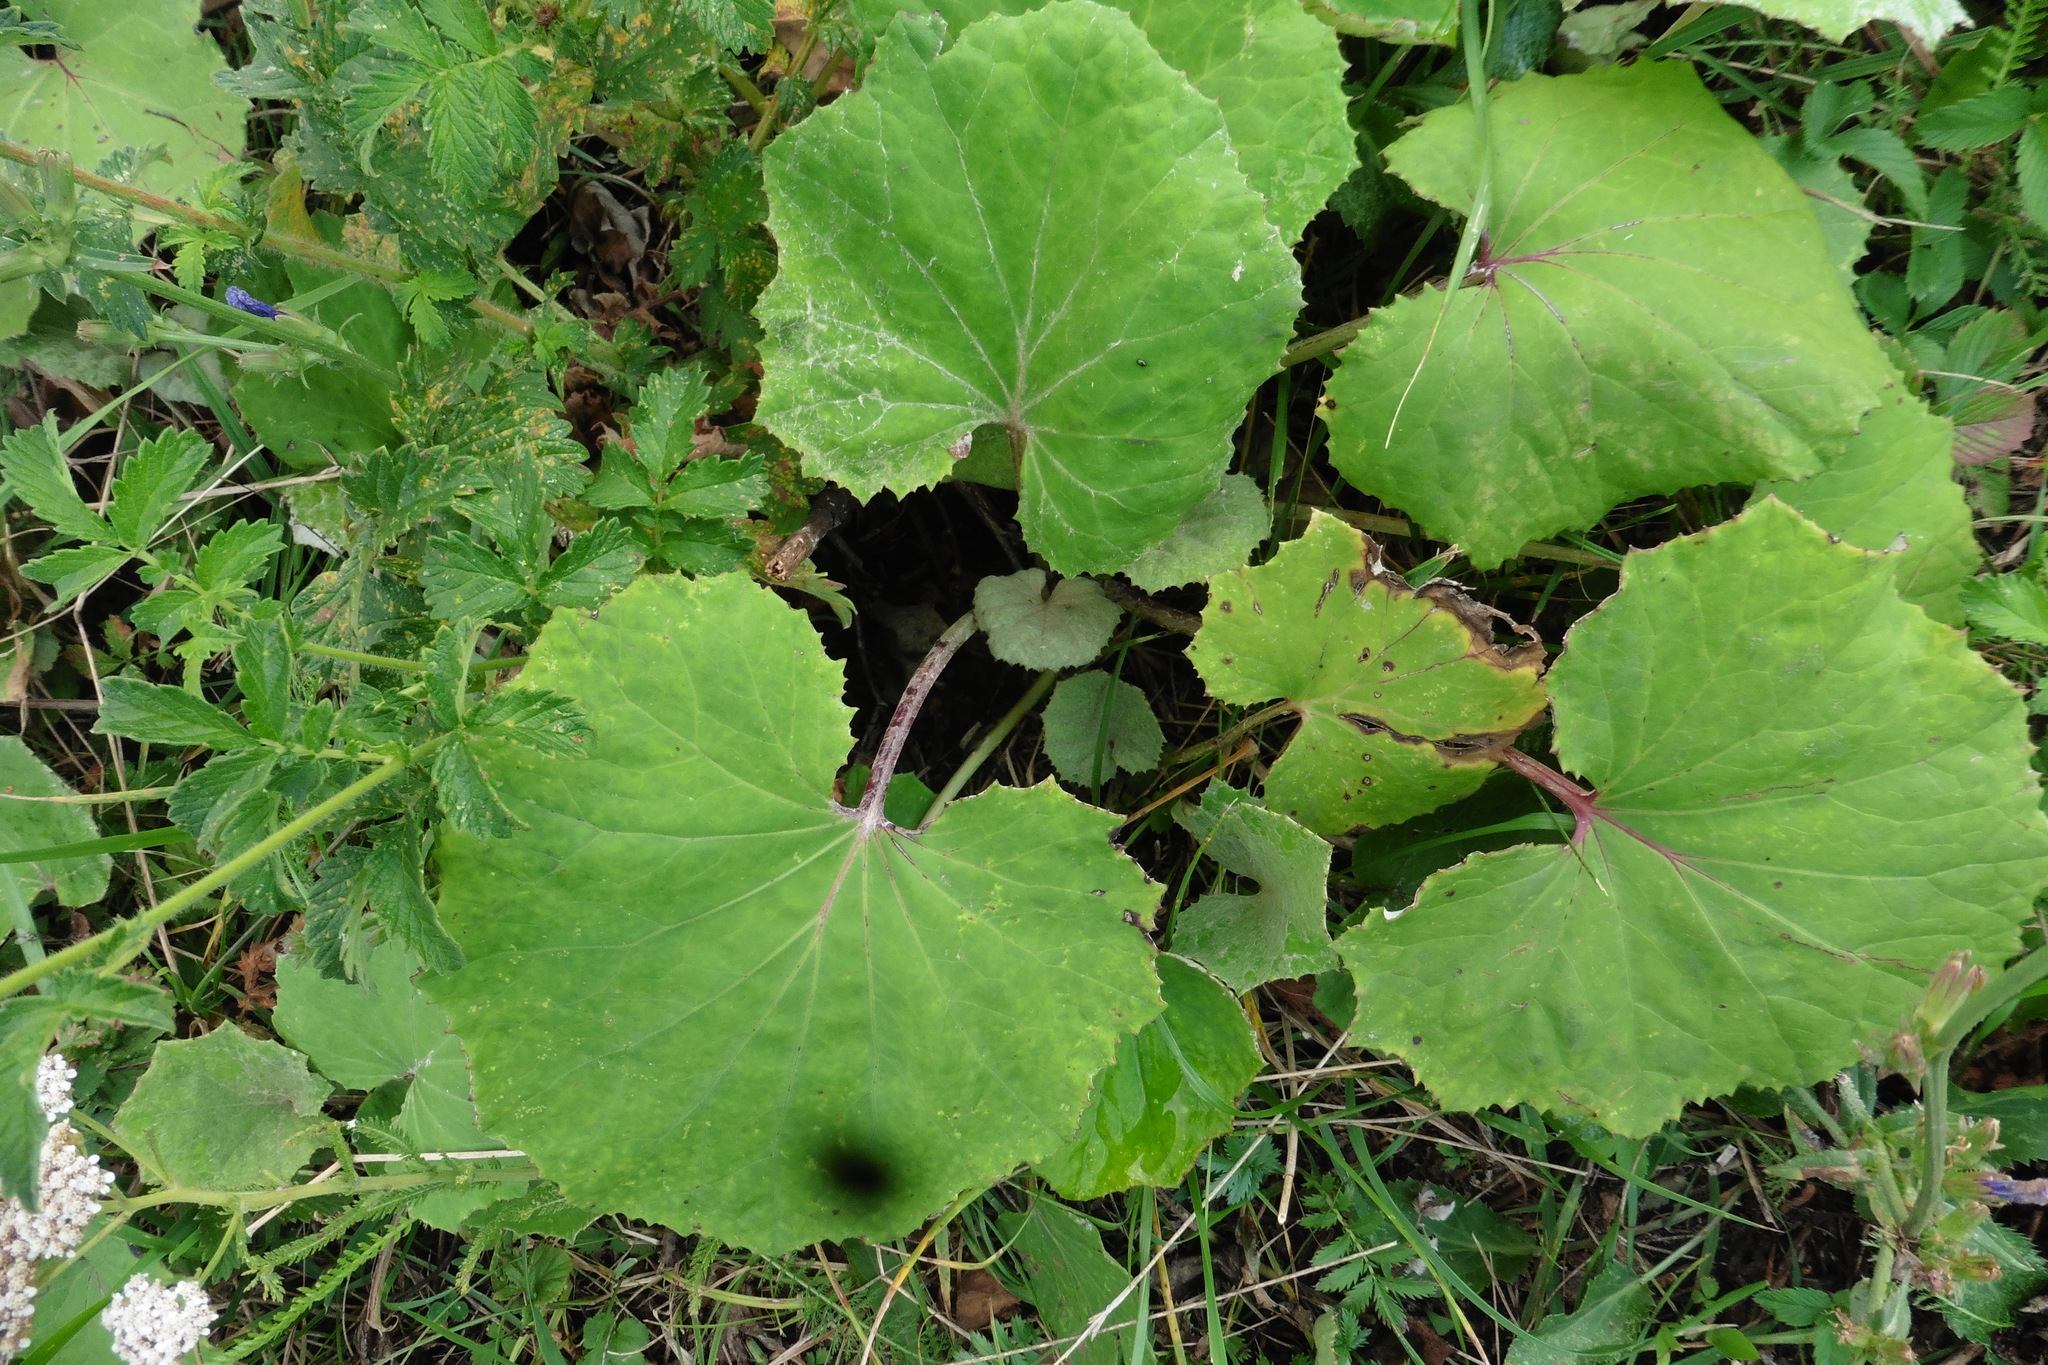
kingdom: Plantae
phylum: Tracheophyta
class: Magnoliopsida
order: Asterales
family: Asteraceae
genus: Tussilago
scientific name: Tussilago farfara
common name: Coltsfoot
